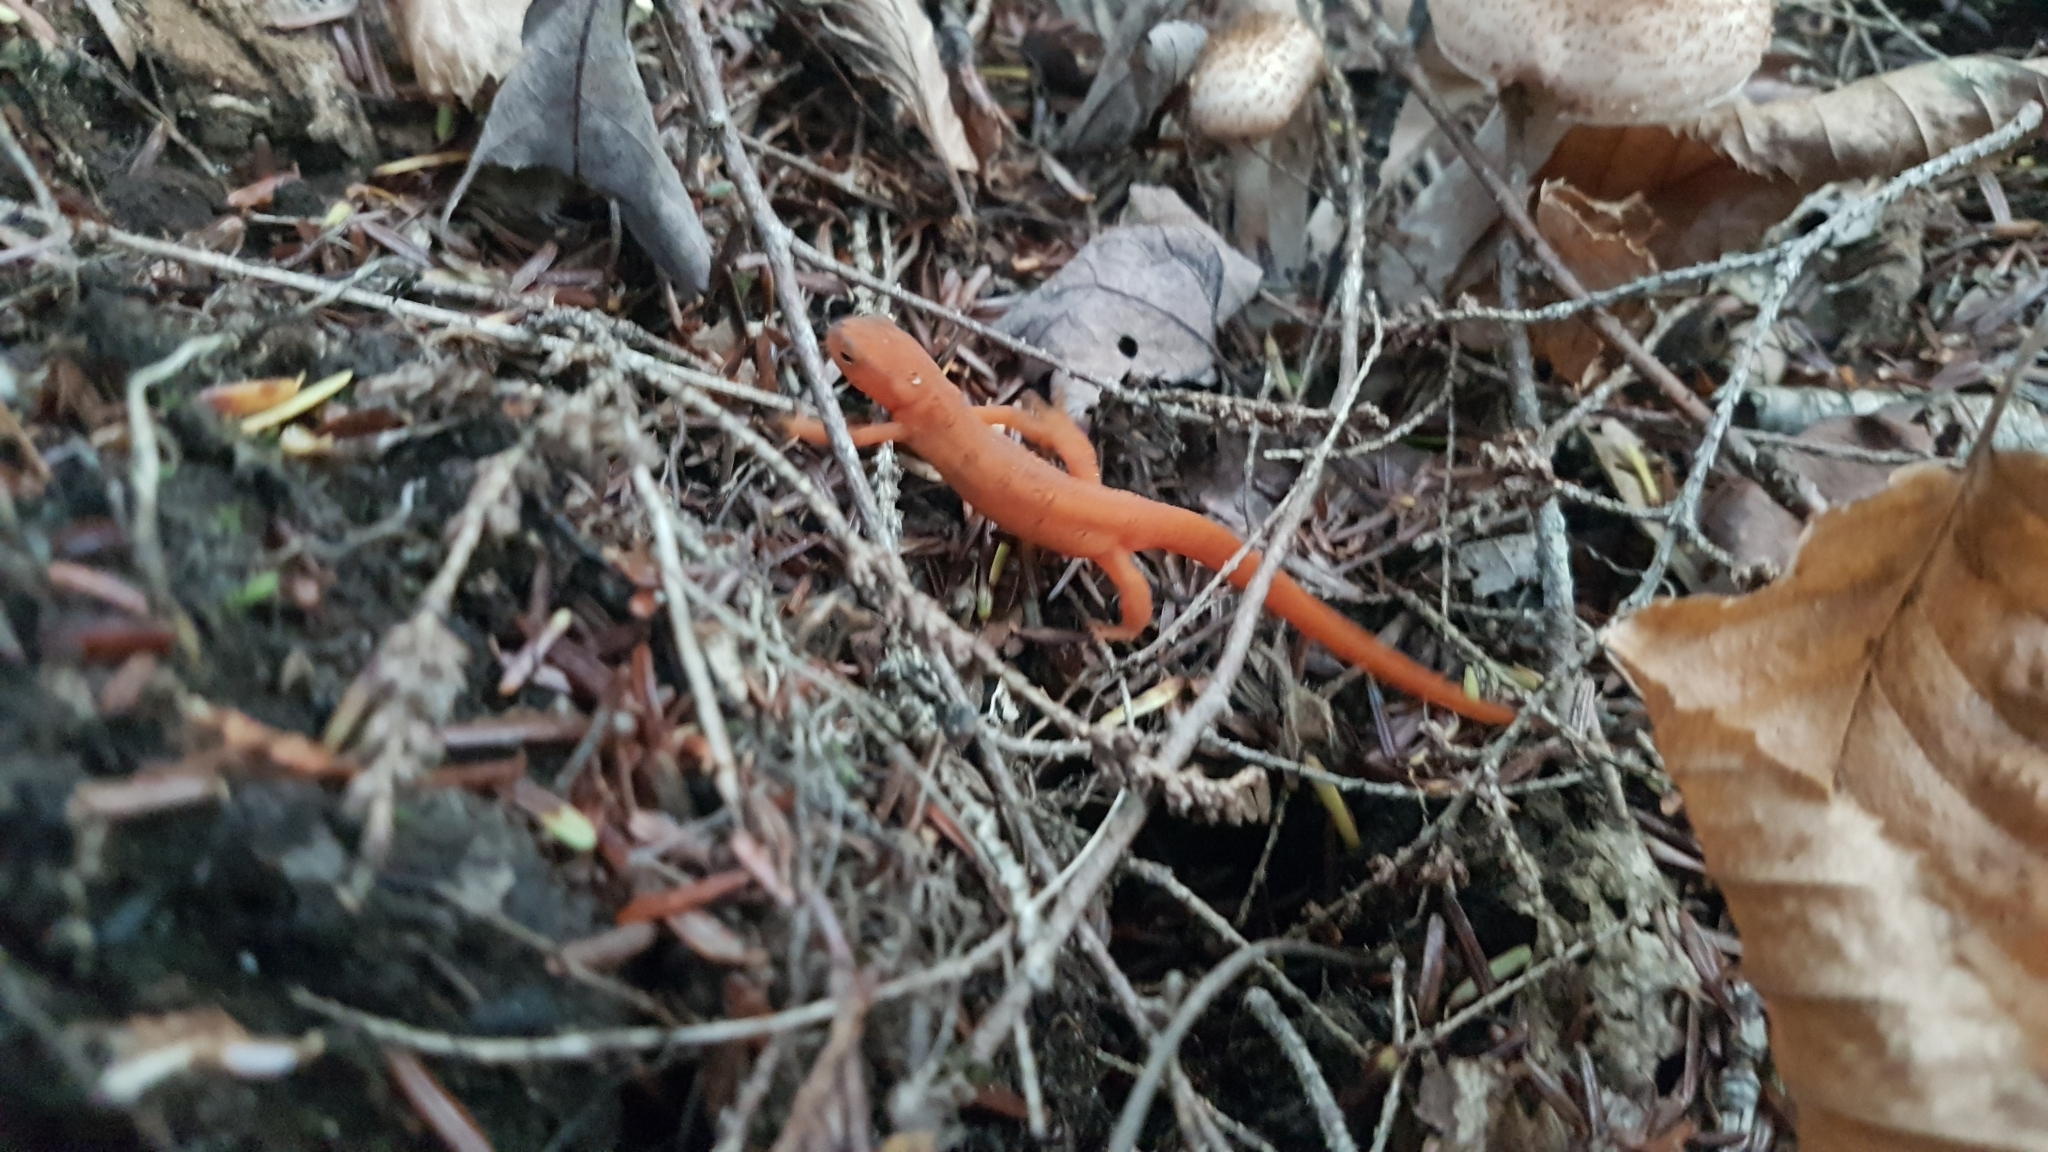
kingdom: Animalia
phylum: Chordata
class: Amphibia
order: Caudata
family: Salamandridae
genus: Notophthalmus
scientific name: Notophthalmus viridescens
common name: Eastern newt
